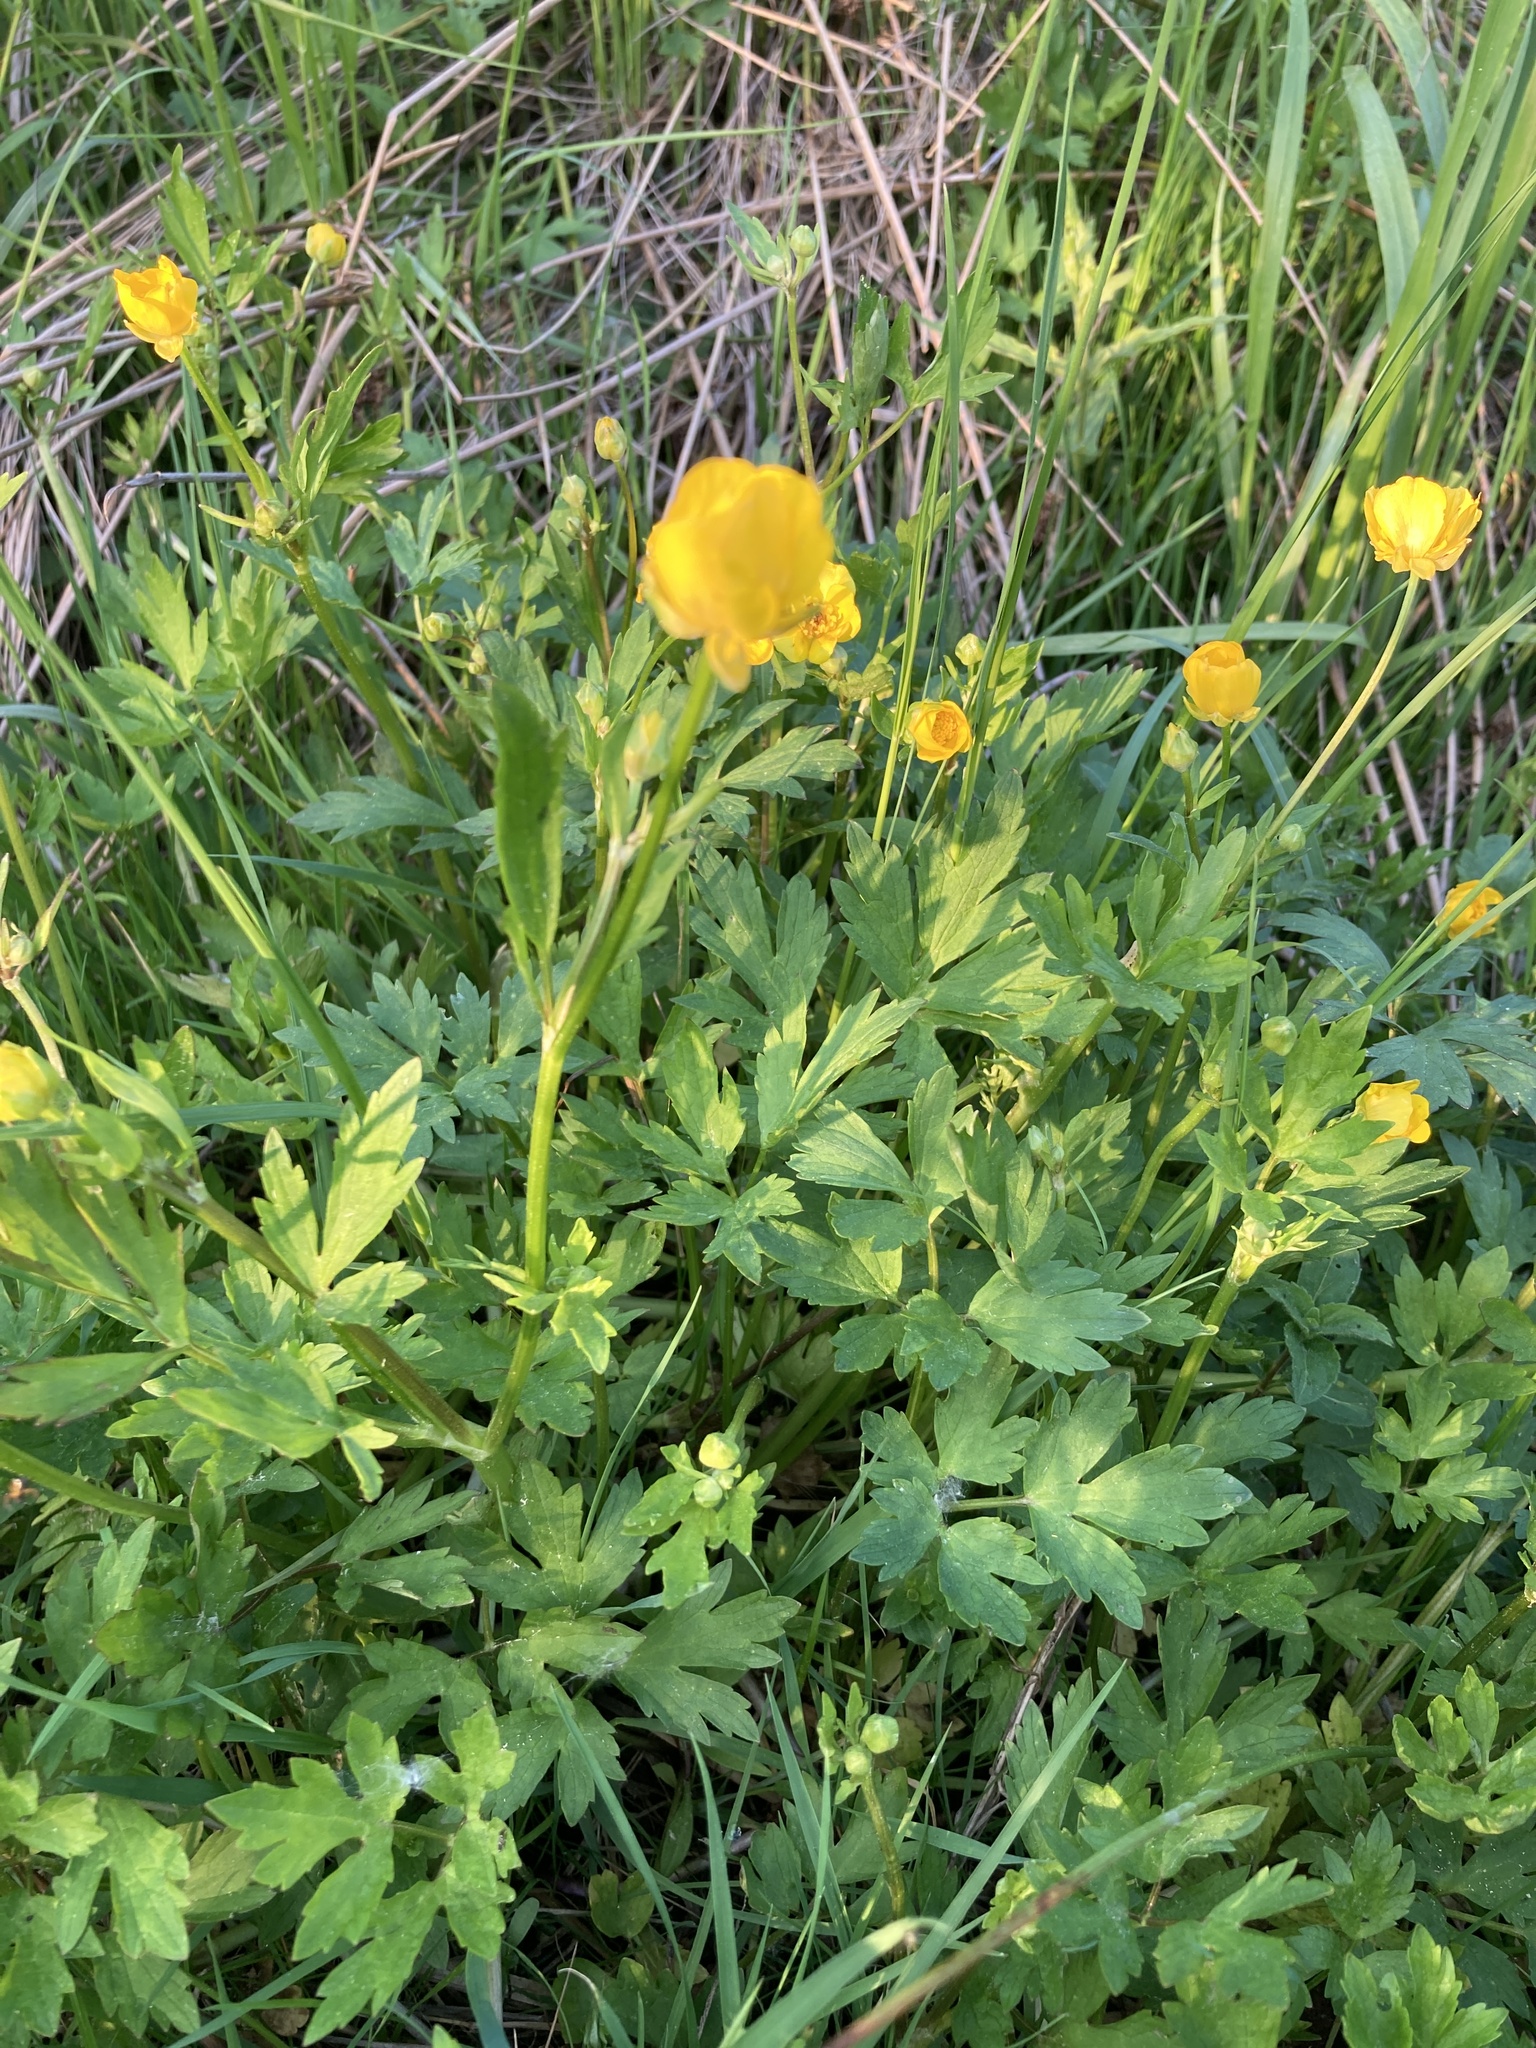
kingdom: Plantae
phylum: Tracheophyta
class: Magnoliopsida
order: Ranunculales
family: Ranunculaceae
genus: Ranunculus
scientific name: Ranunculus repens
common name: Creeping buttercup
